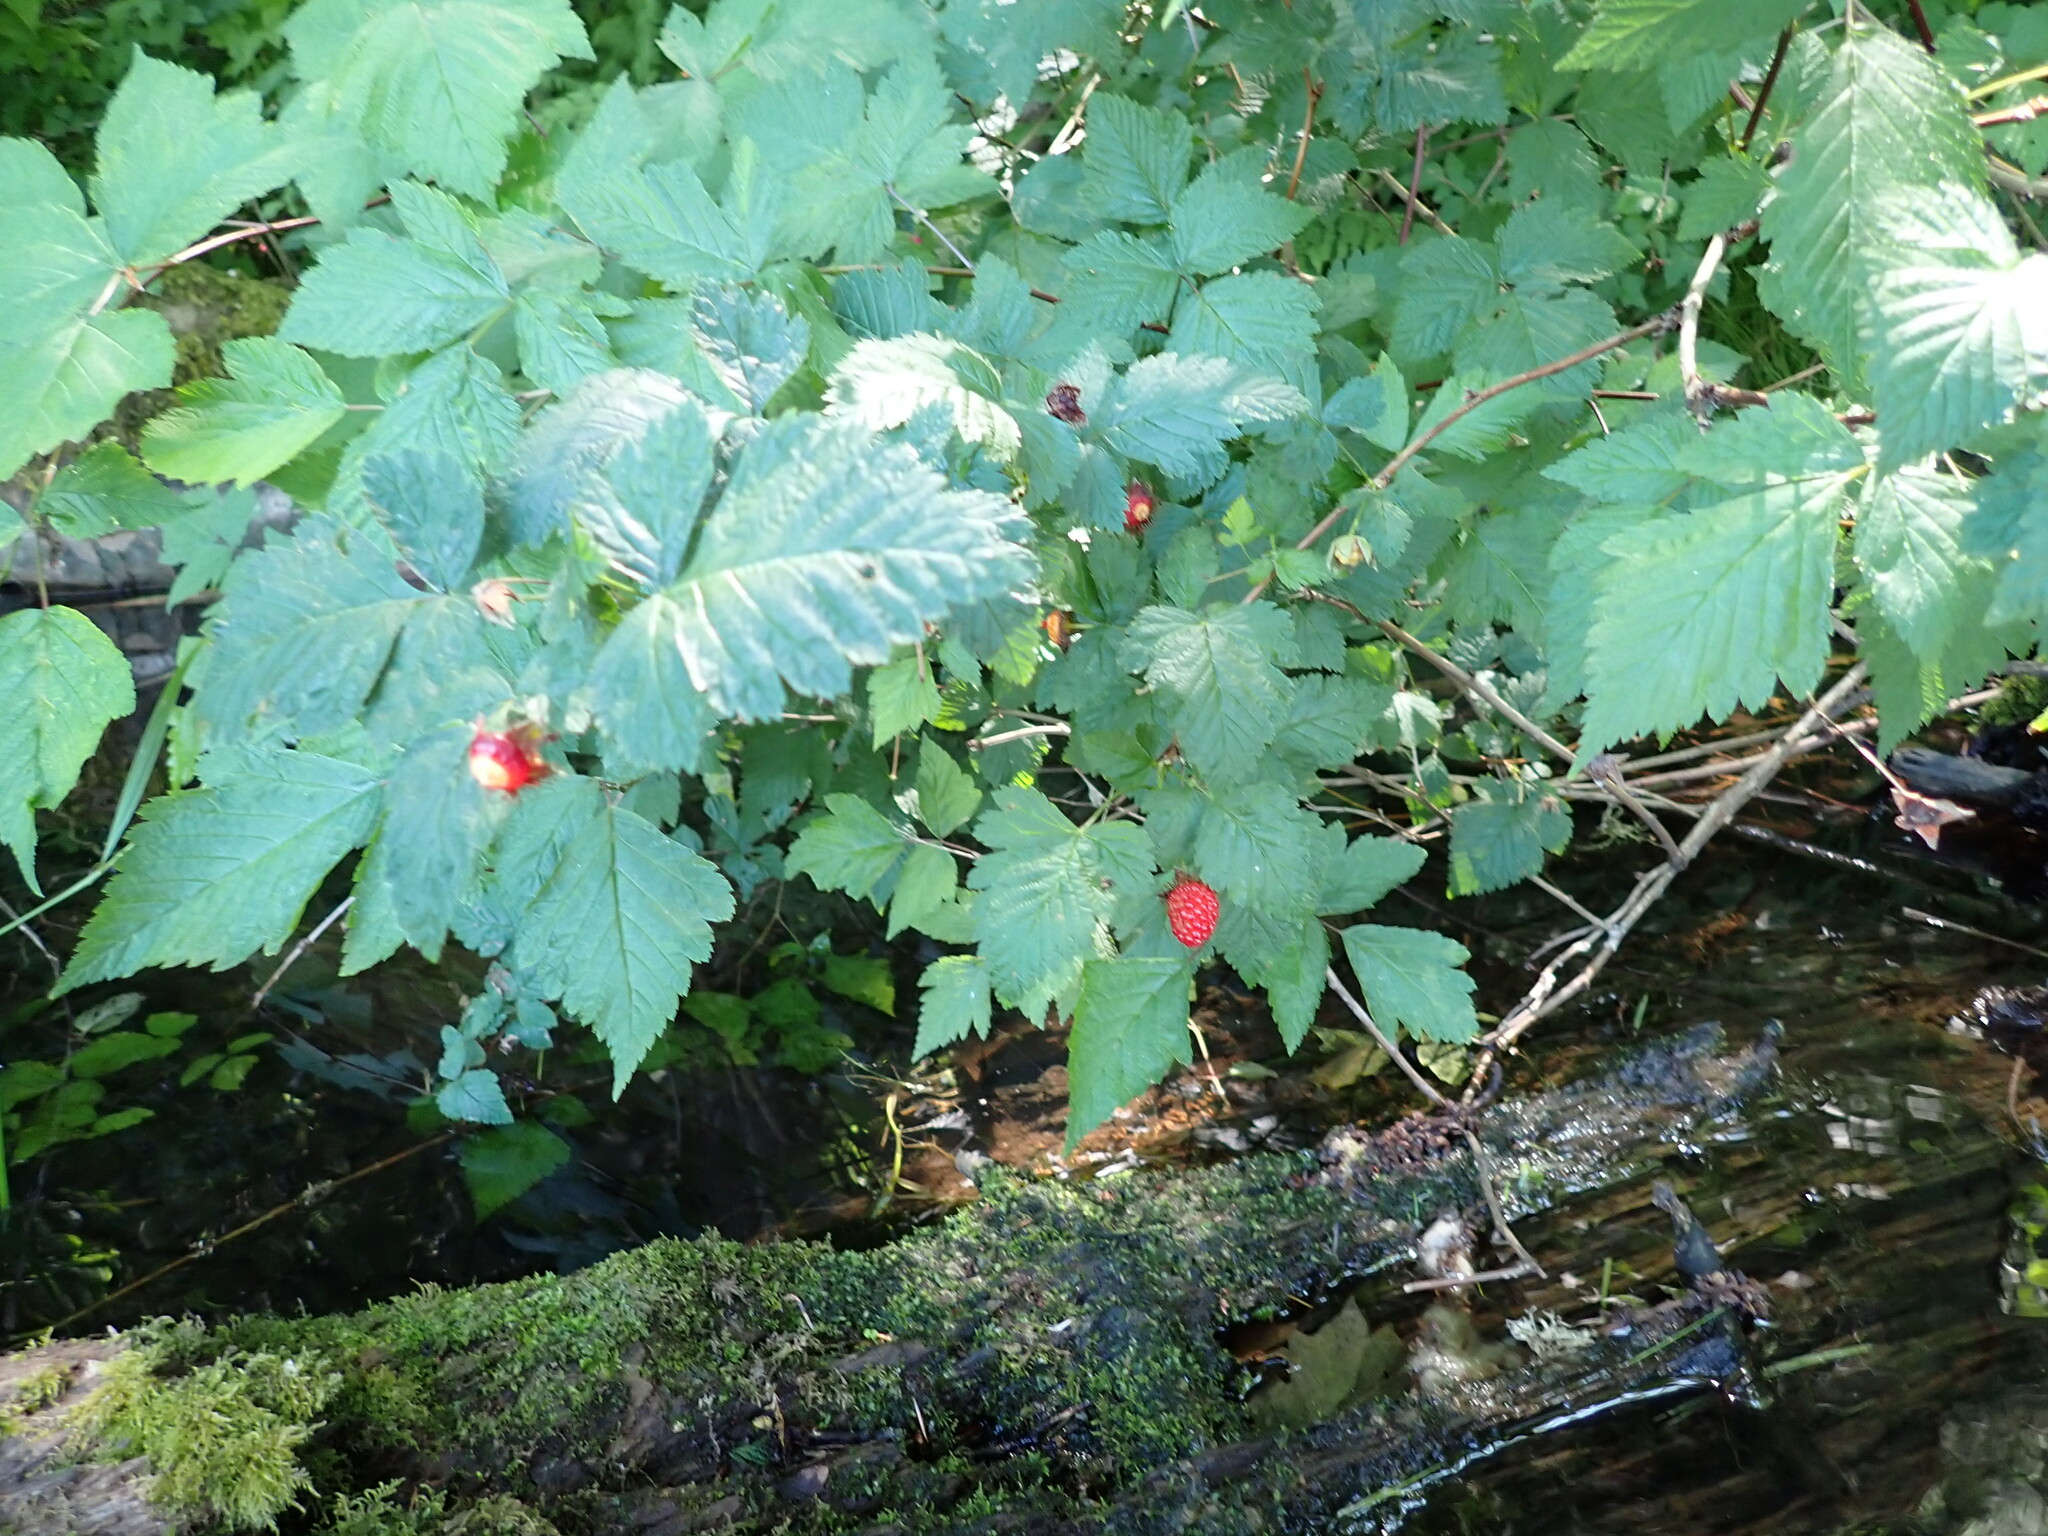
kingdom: Plantae
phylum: Tracheophyta
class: Magnoliopsida
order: Rosales
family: Rosaceae
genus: Rubus
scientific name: Rubus spectabilis
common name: Salmonberry
